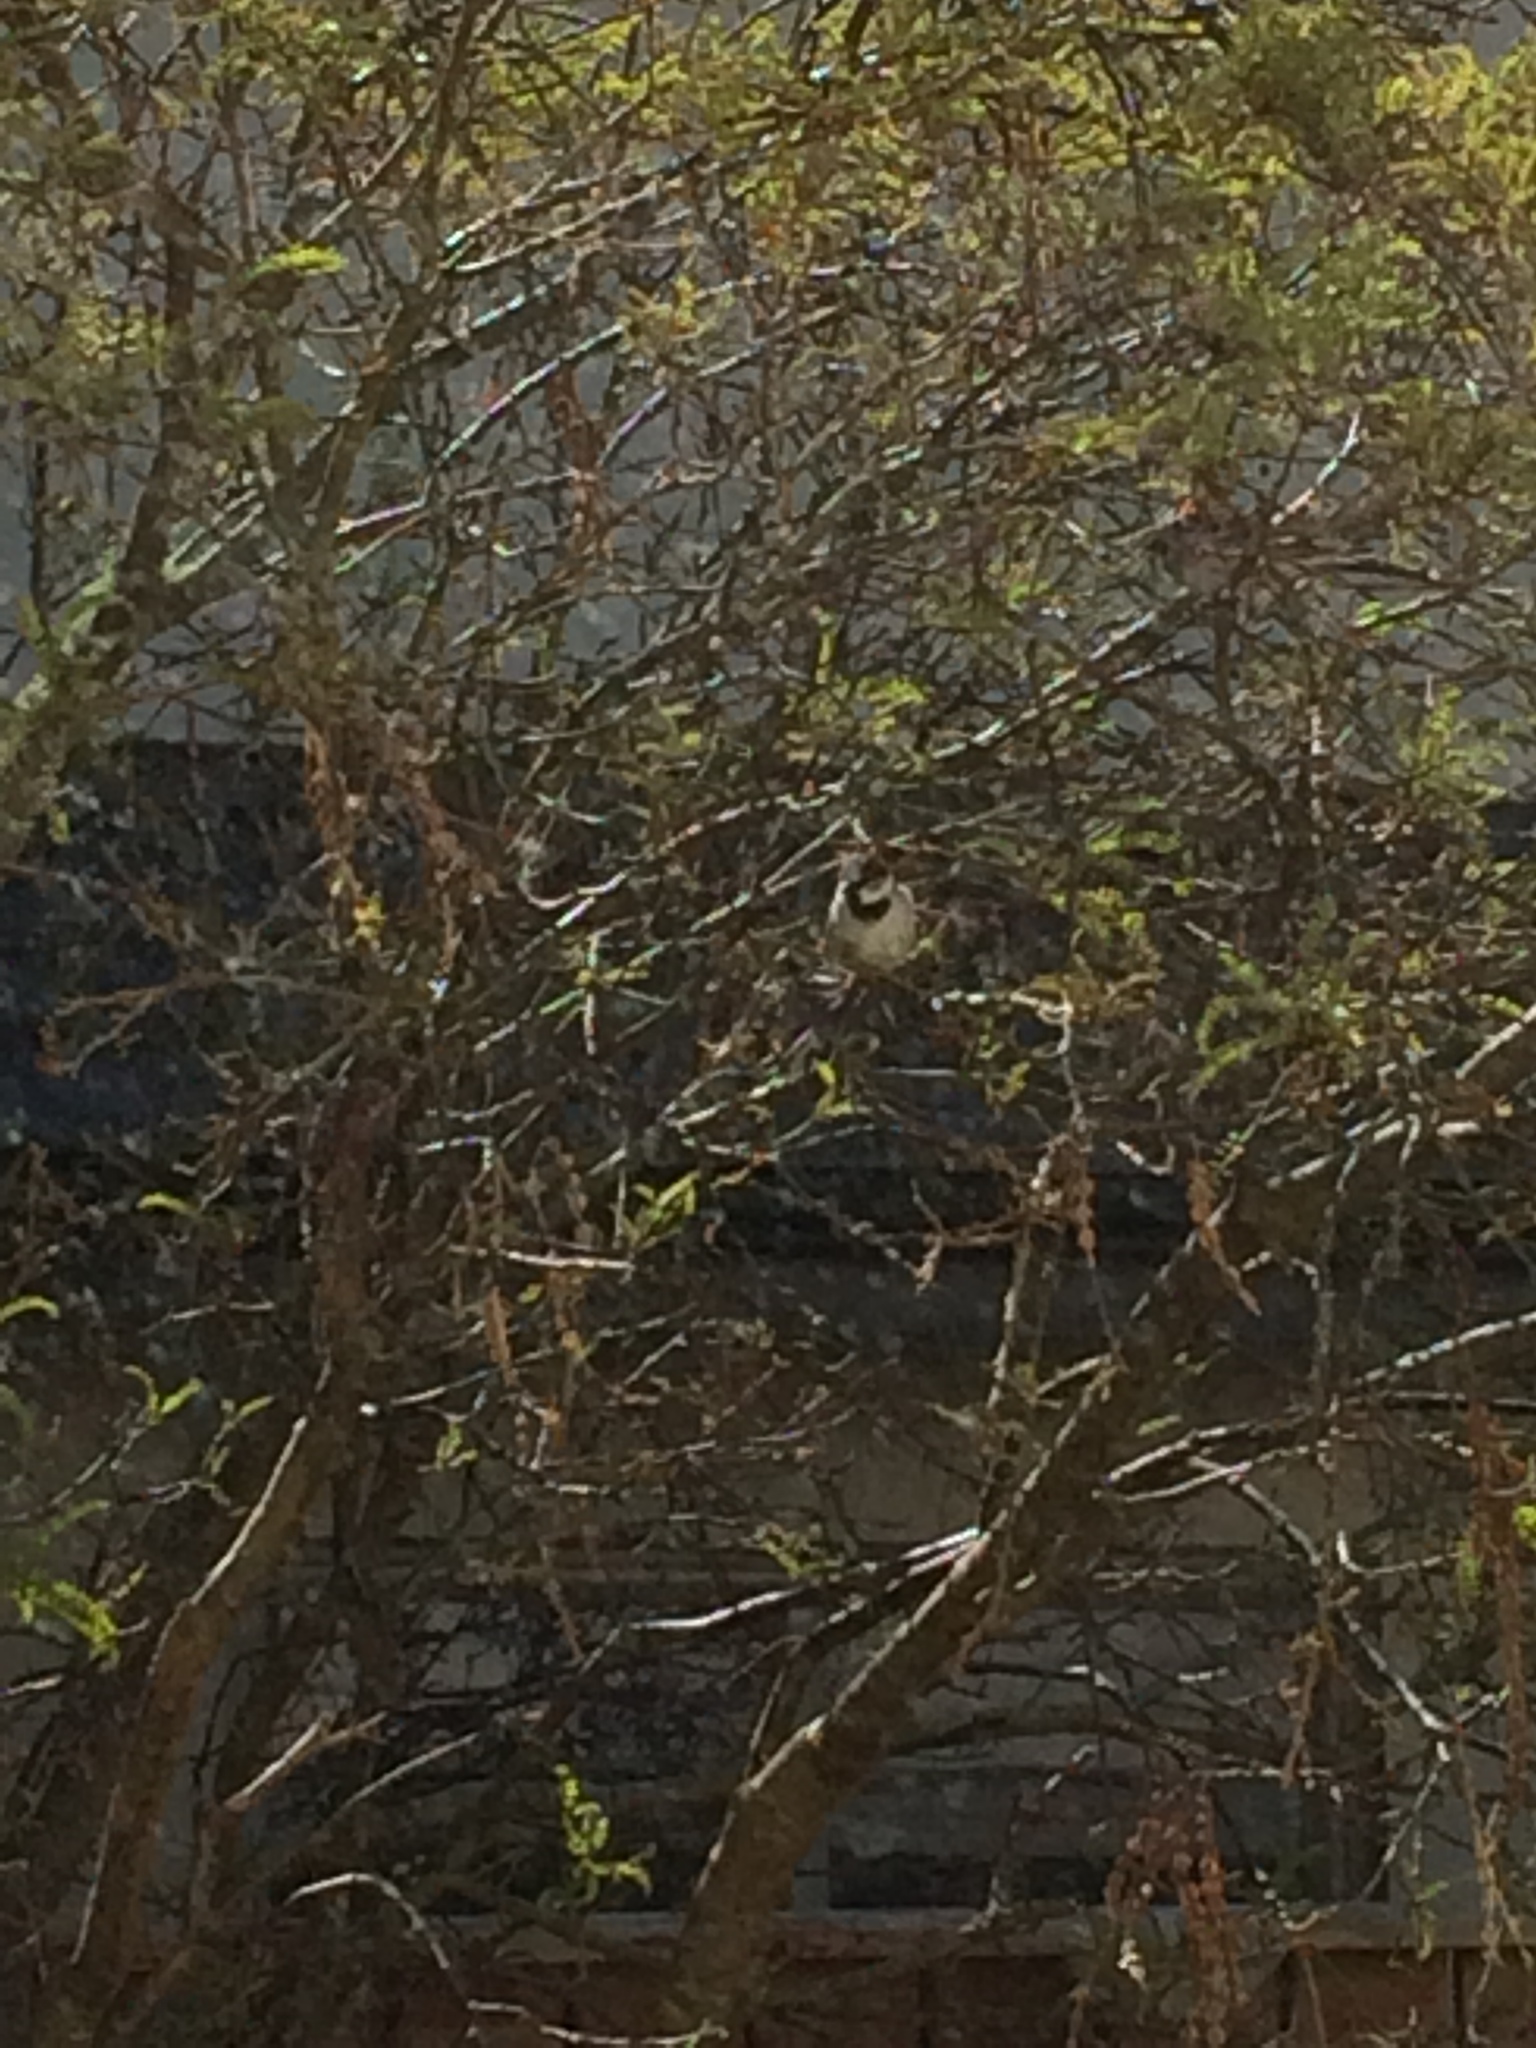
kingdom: Animalia
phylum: Chordata
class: Aves
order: Passeriformes
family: Passeridae
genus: Passer
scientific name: Passer domesticus
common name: House sparrow
